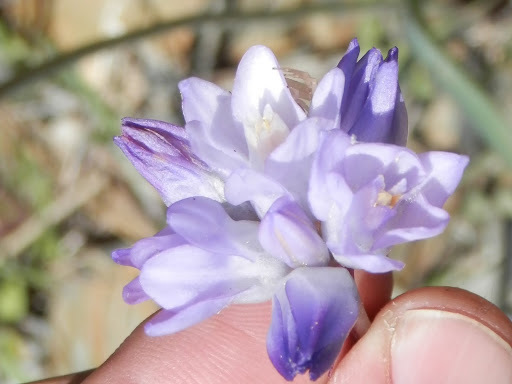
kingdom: Plantae
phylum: Tracheophyta
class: Liliopsida
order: Asparagales
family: Asparagaceae
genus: Dipterostemon
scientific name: Dipterostemon capitatus
